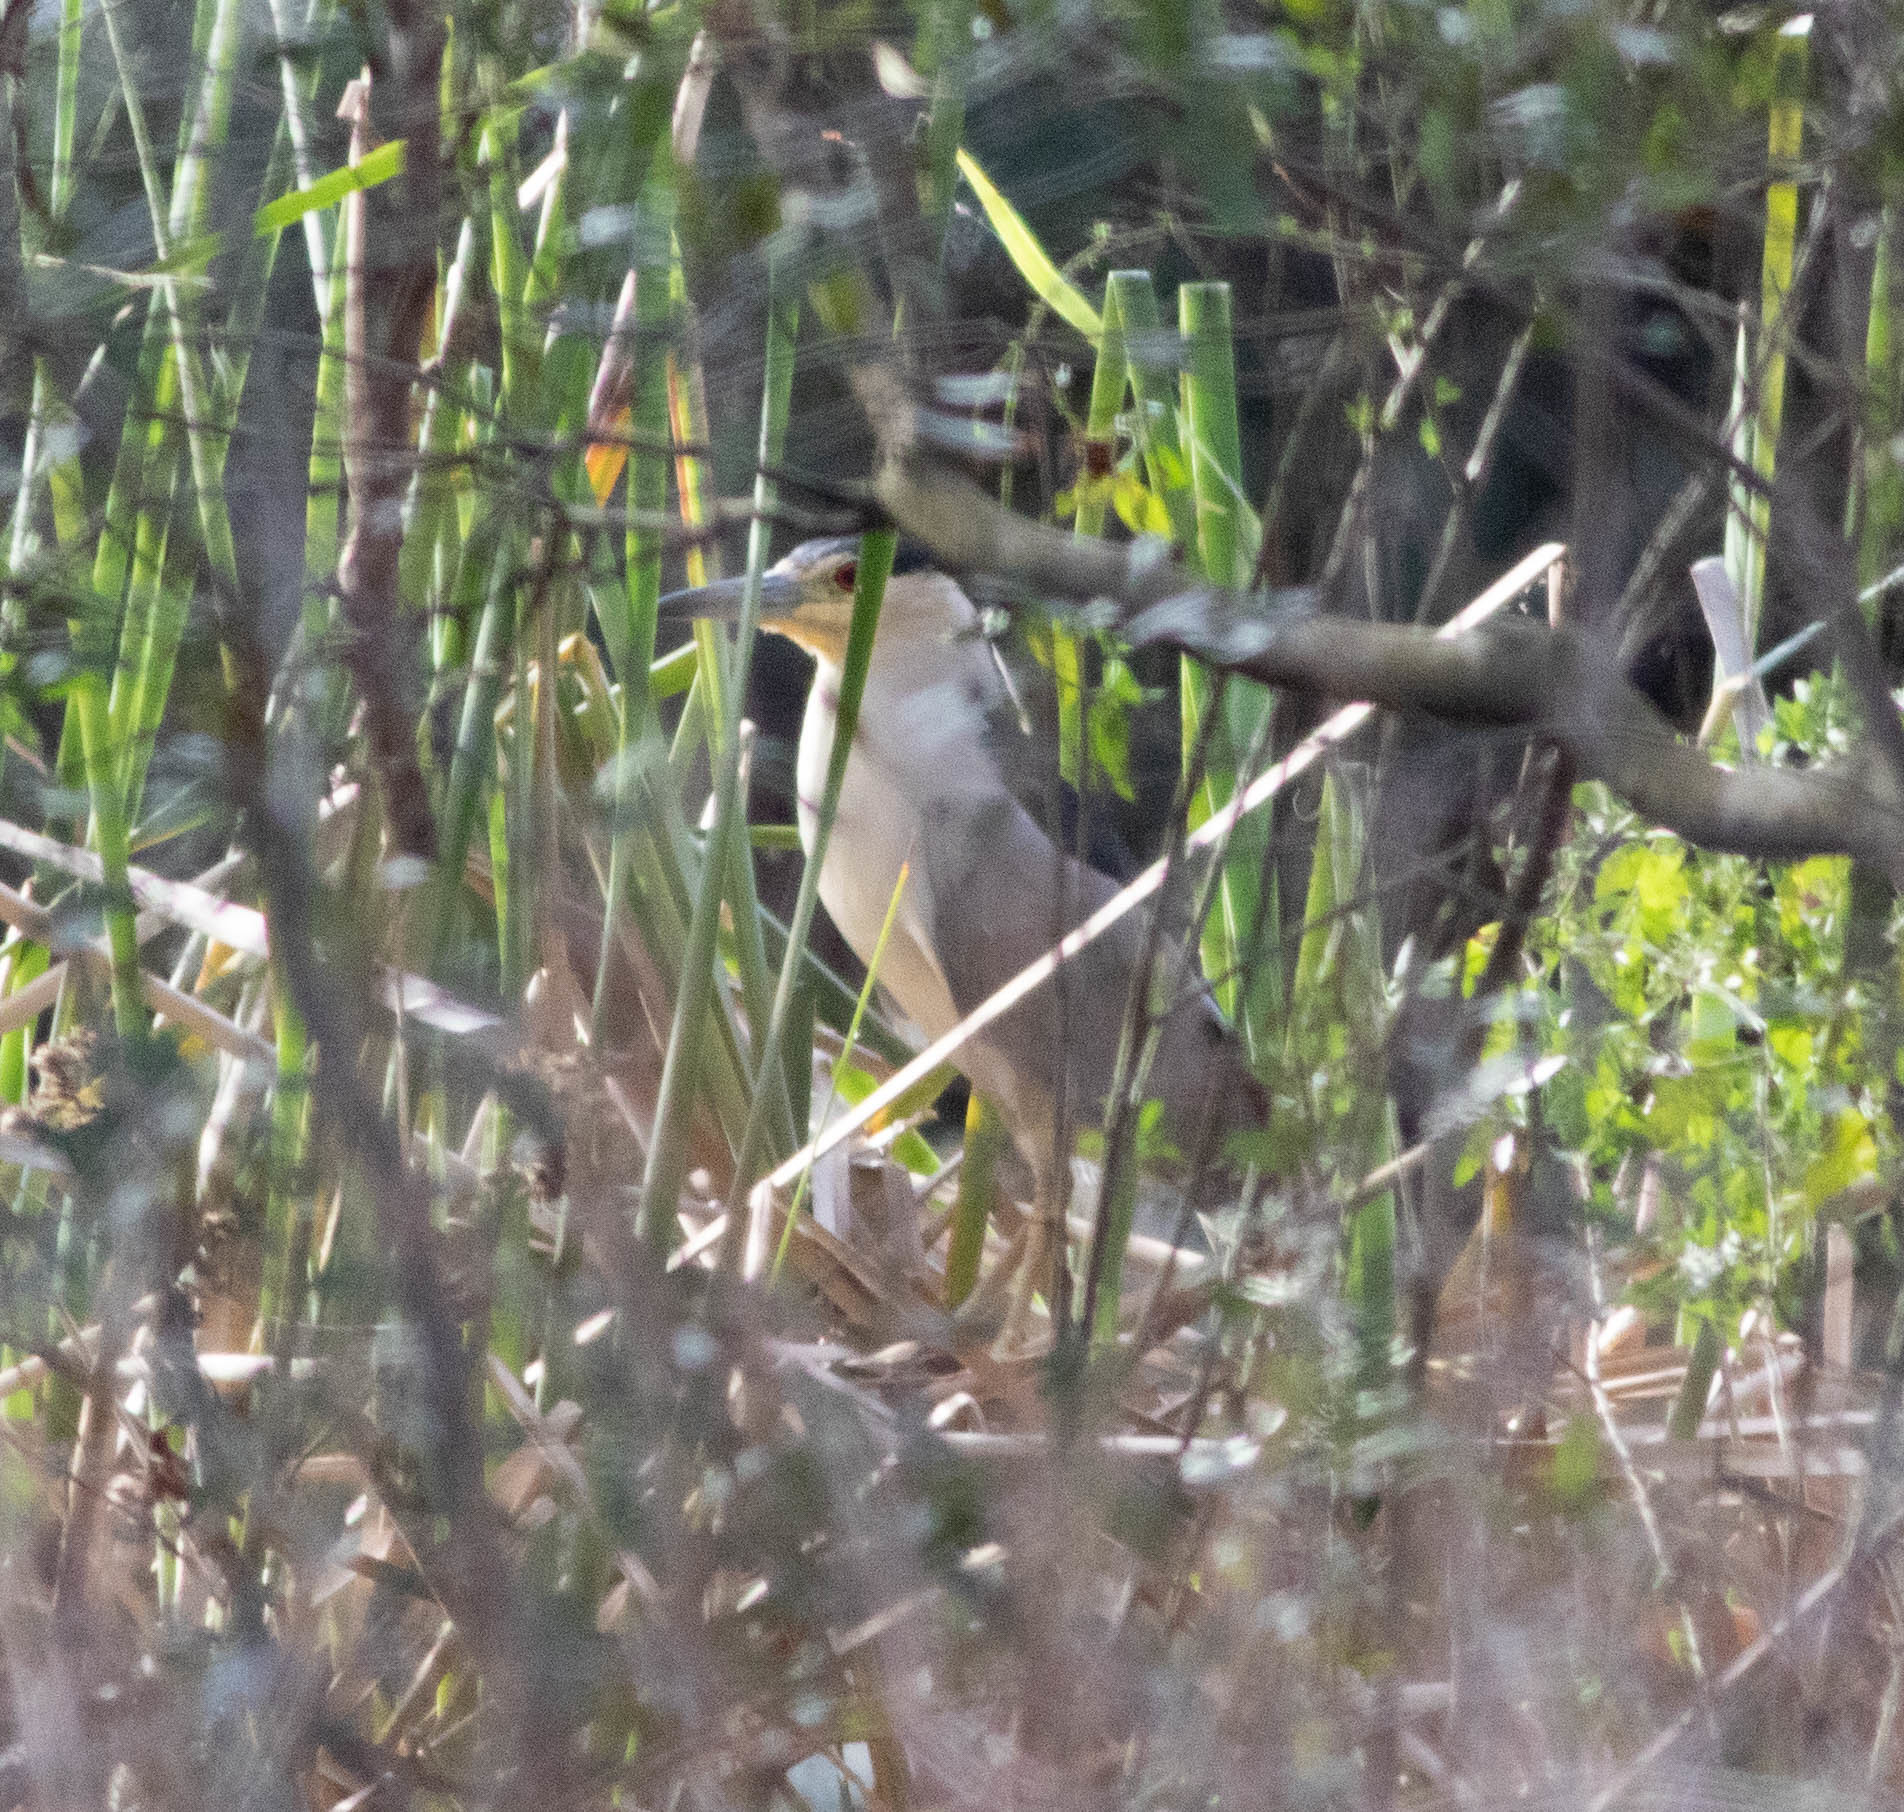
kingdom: Animalia
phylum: Chordata
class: Aves
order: Pelecaniformes
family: Ardeidae
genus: Nycticorax
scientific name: Nycticorax nycticorax
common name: Black-crowned night heron
